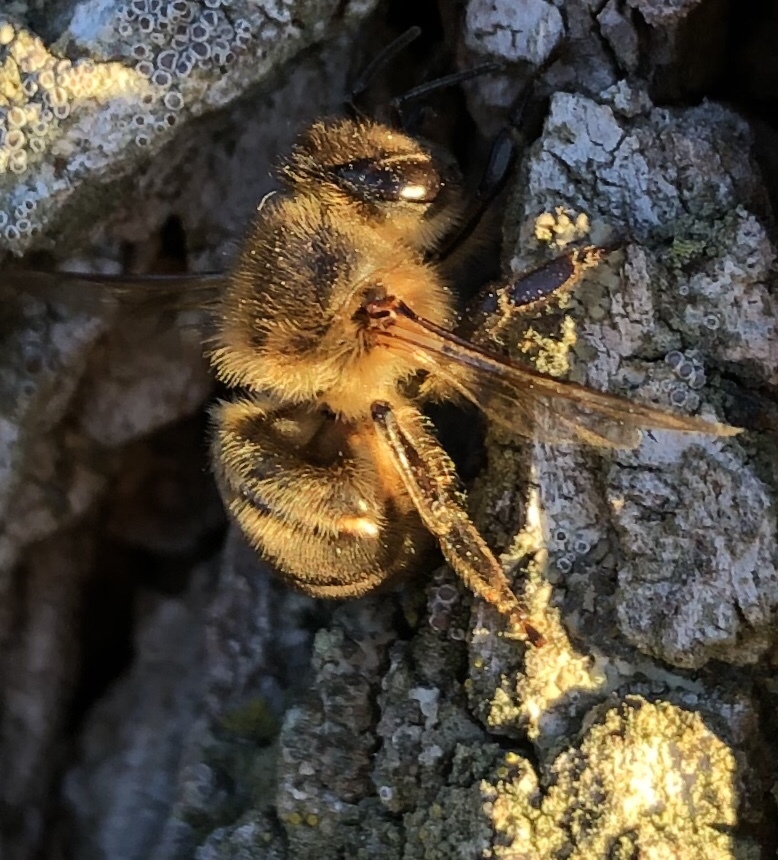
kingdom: Animalia
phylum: Arthropoda
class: Insecta
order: Hymenoptera
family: Apidae
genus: Apis
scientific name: Apis mellifera
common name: Honey bee
